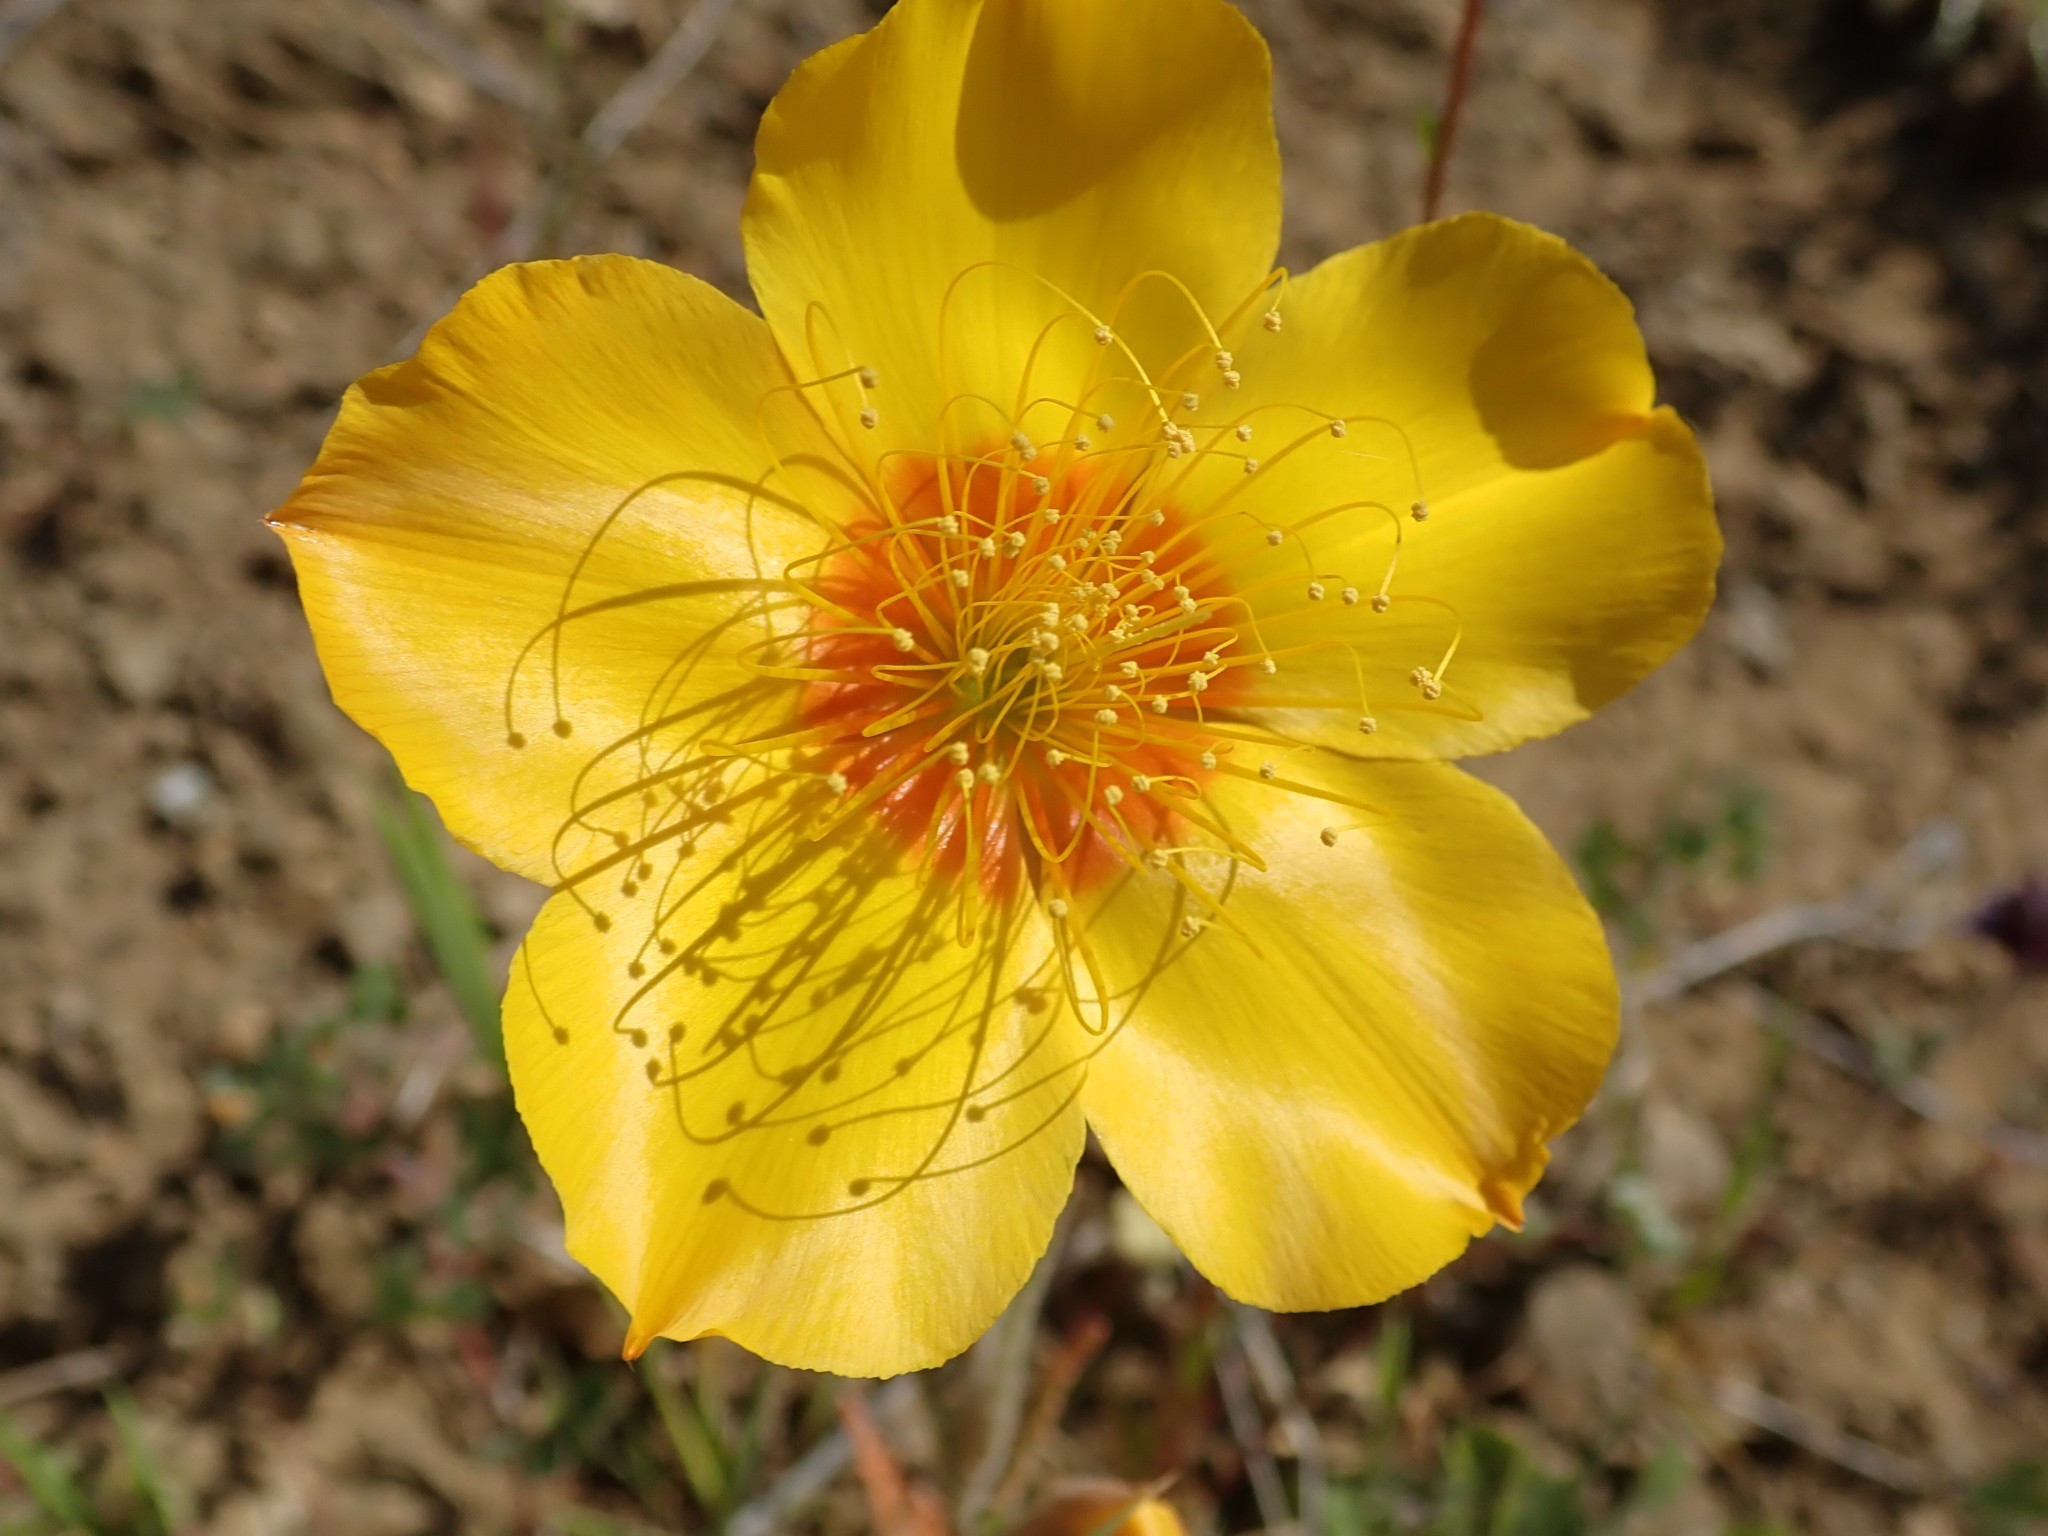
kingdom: Plantae
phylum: Tracheophyta
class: Magnoliopsida
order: Cornales
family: Loasaceae
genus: Mentzelia
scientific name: Mentzelia lindleyi
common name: Golden bartonia
